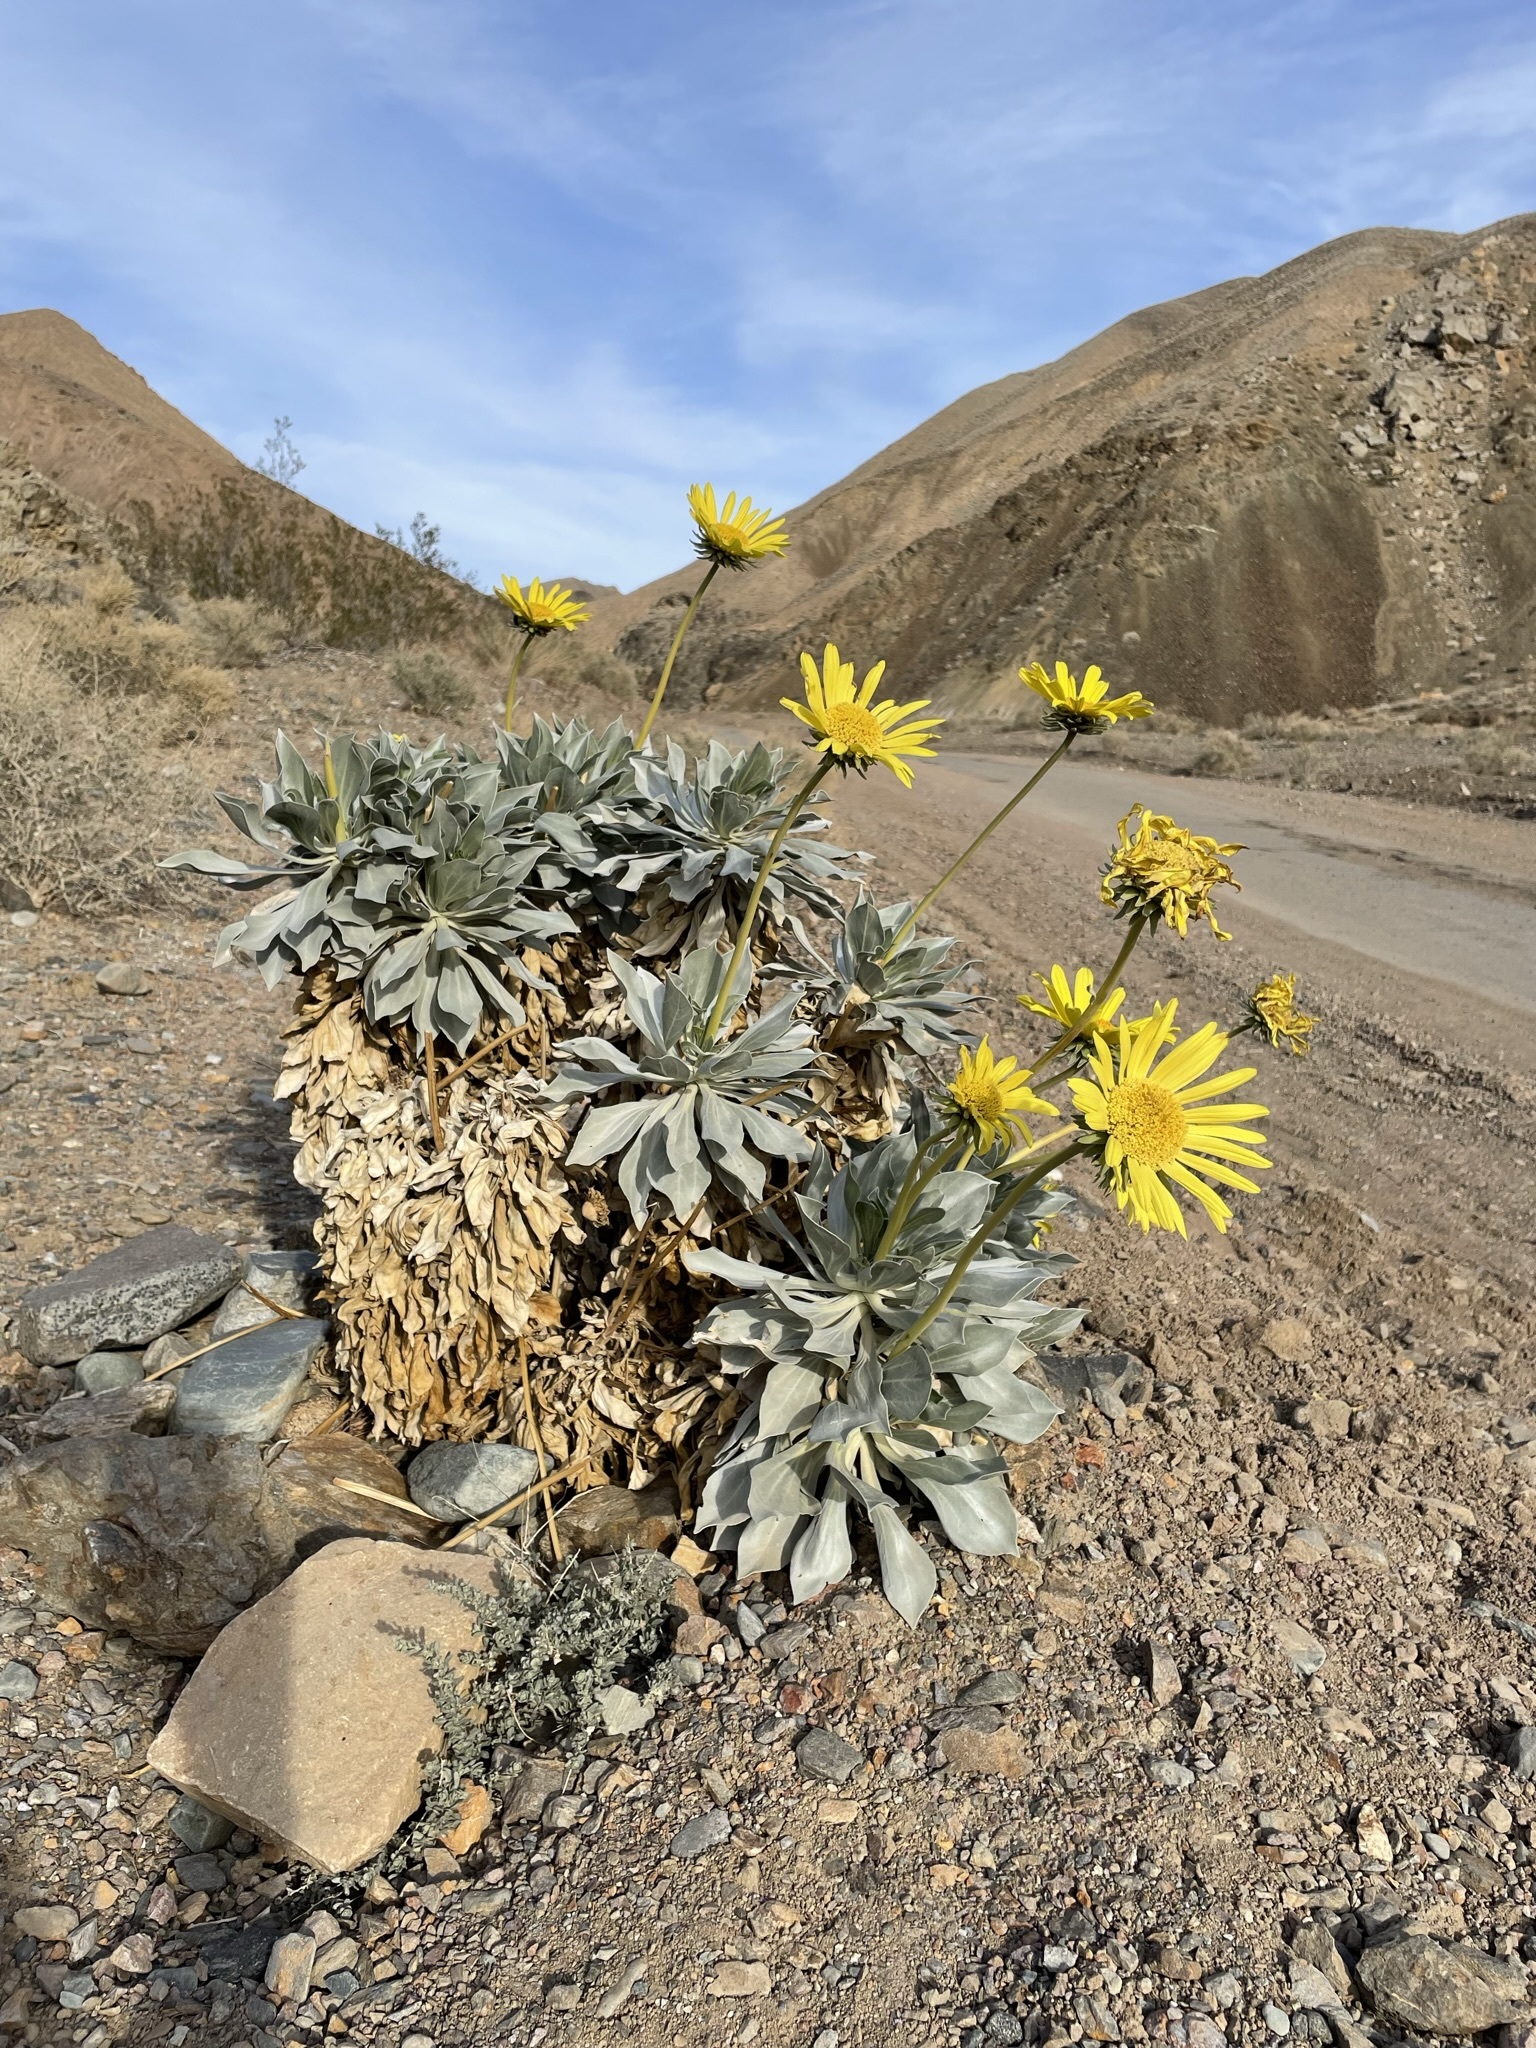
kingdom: Plantae
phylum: Tracheophyta
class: Magnoliopsida
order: Asterales
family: Asteraceae
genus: Enceliopsis
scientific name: Enceliopsis covillei
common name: Panamint daisy
